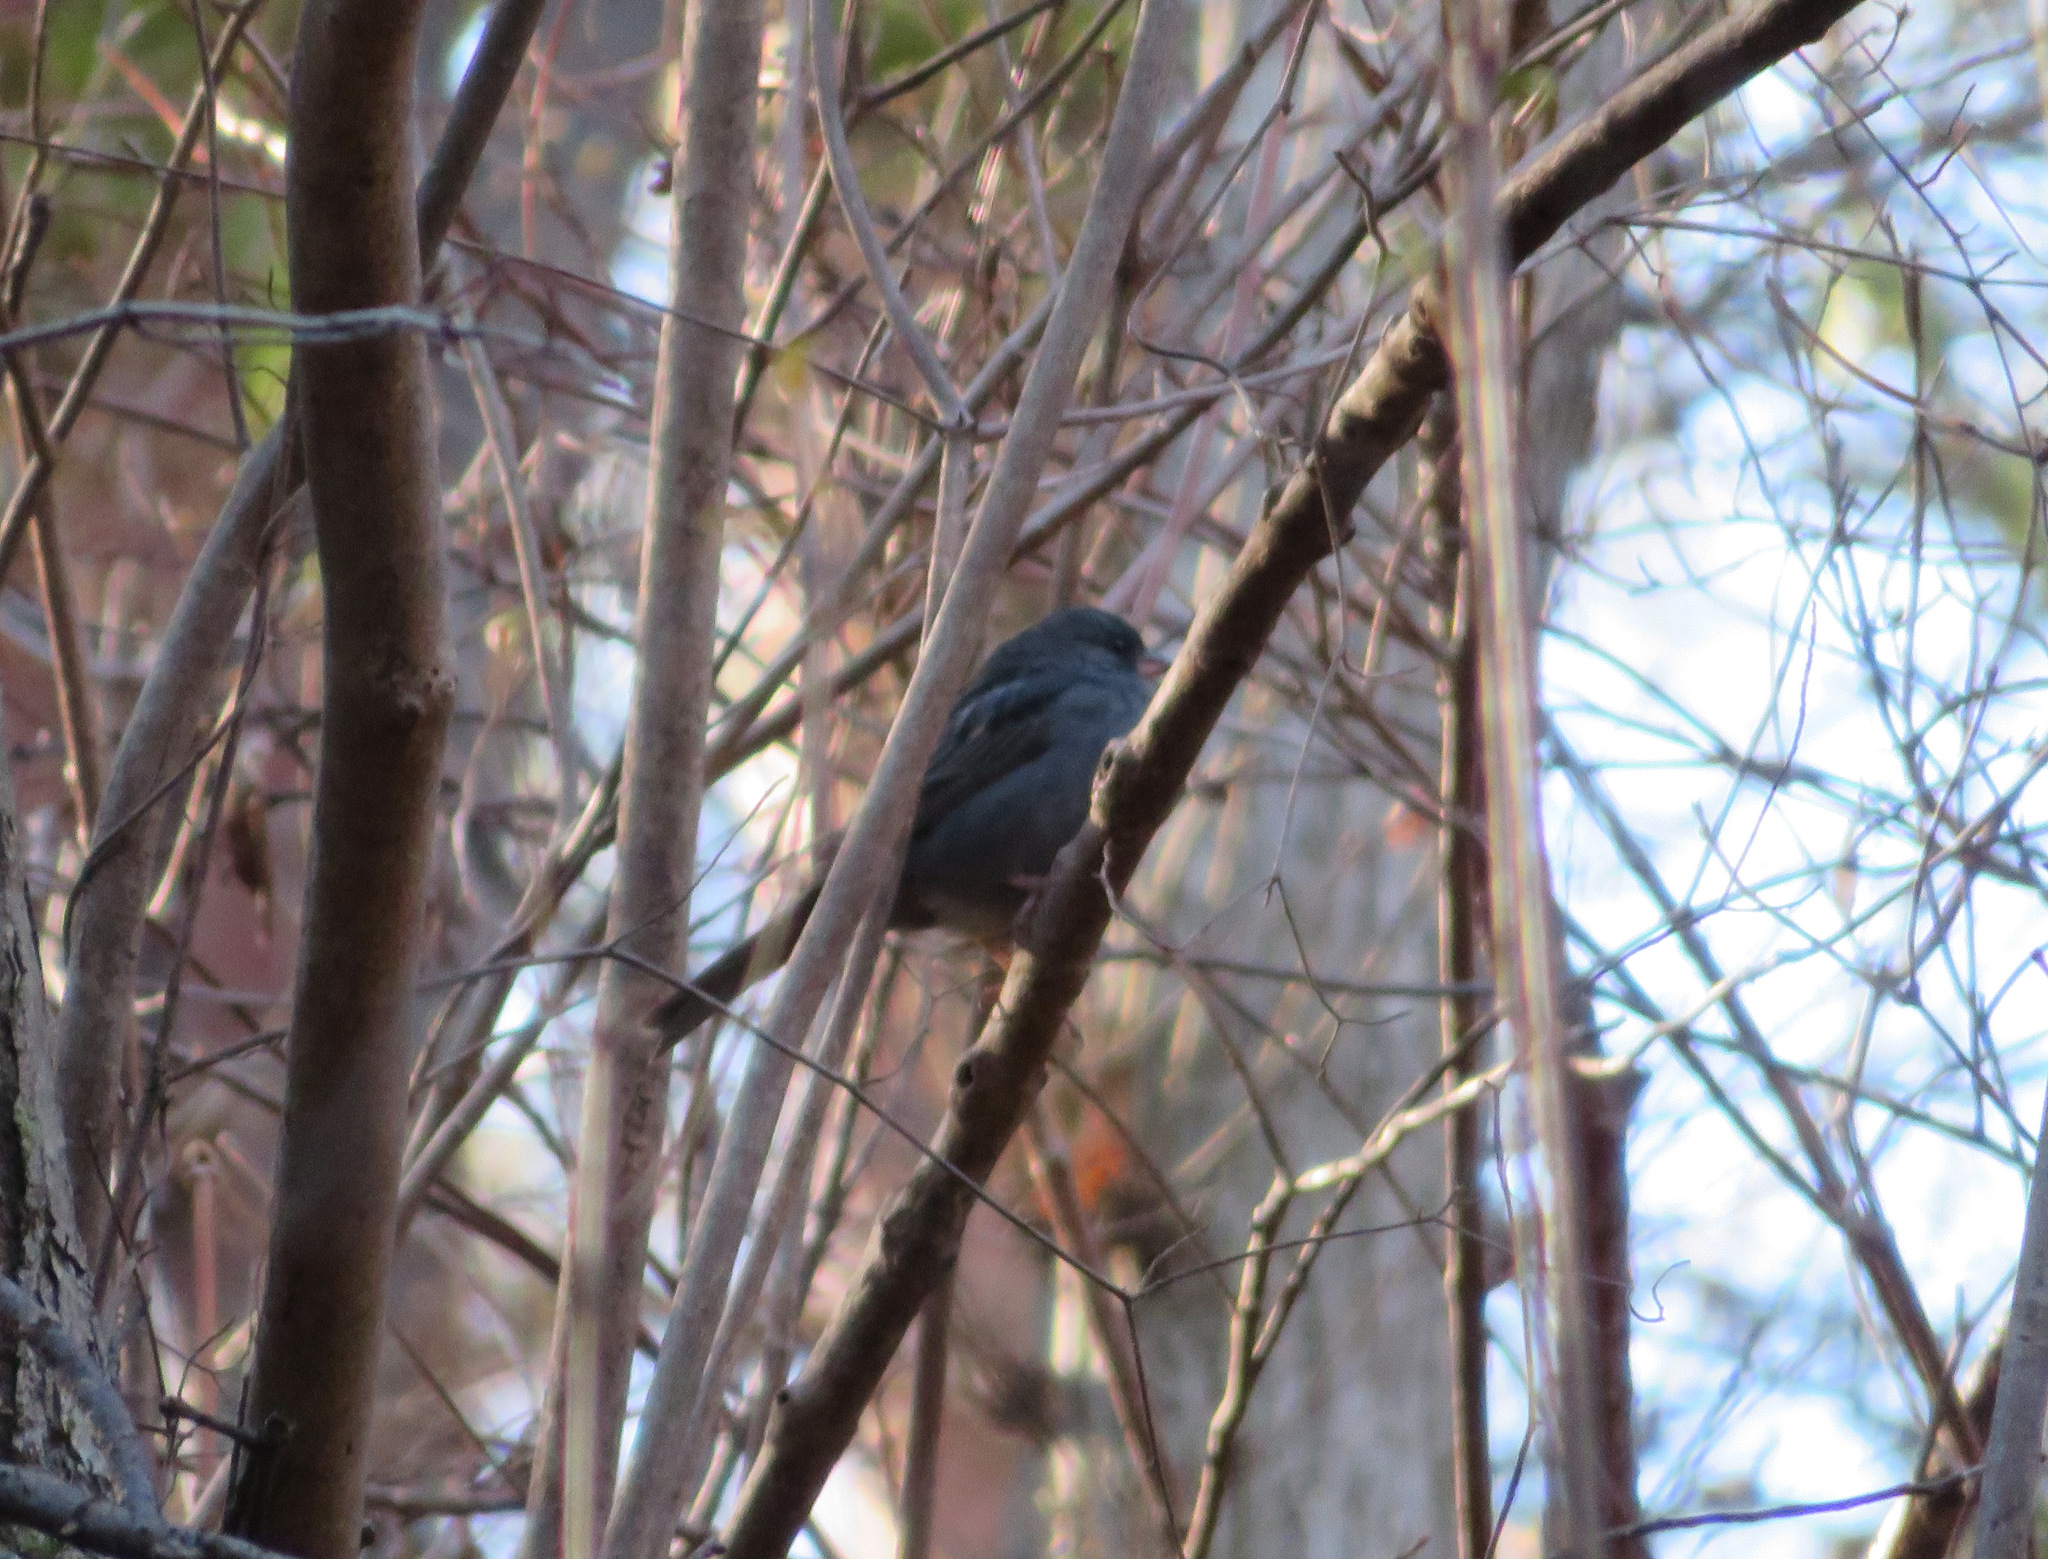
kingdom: Animalia
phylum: Chordata
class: Aves
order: Passeriformes
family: Emberizidae
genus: Emberiza
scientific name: Emberiza variabilis
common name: Gray bunting
